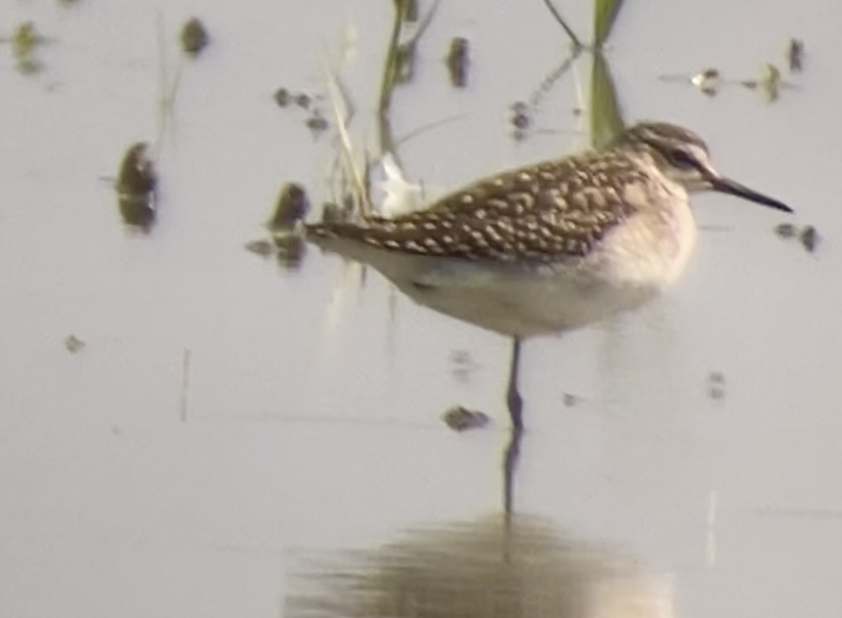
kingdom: Animalia
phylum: Chordata
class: Aves
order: Charadriiformes
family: Scolopacidae
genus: Tringa
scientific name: Tringa glareola
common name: Wood sandpiper
